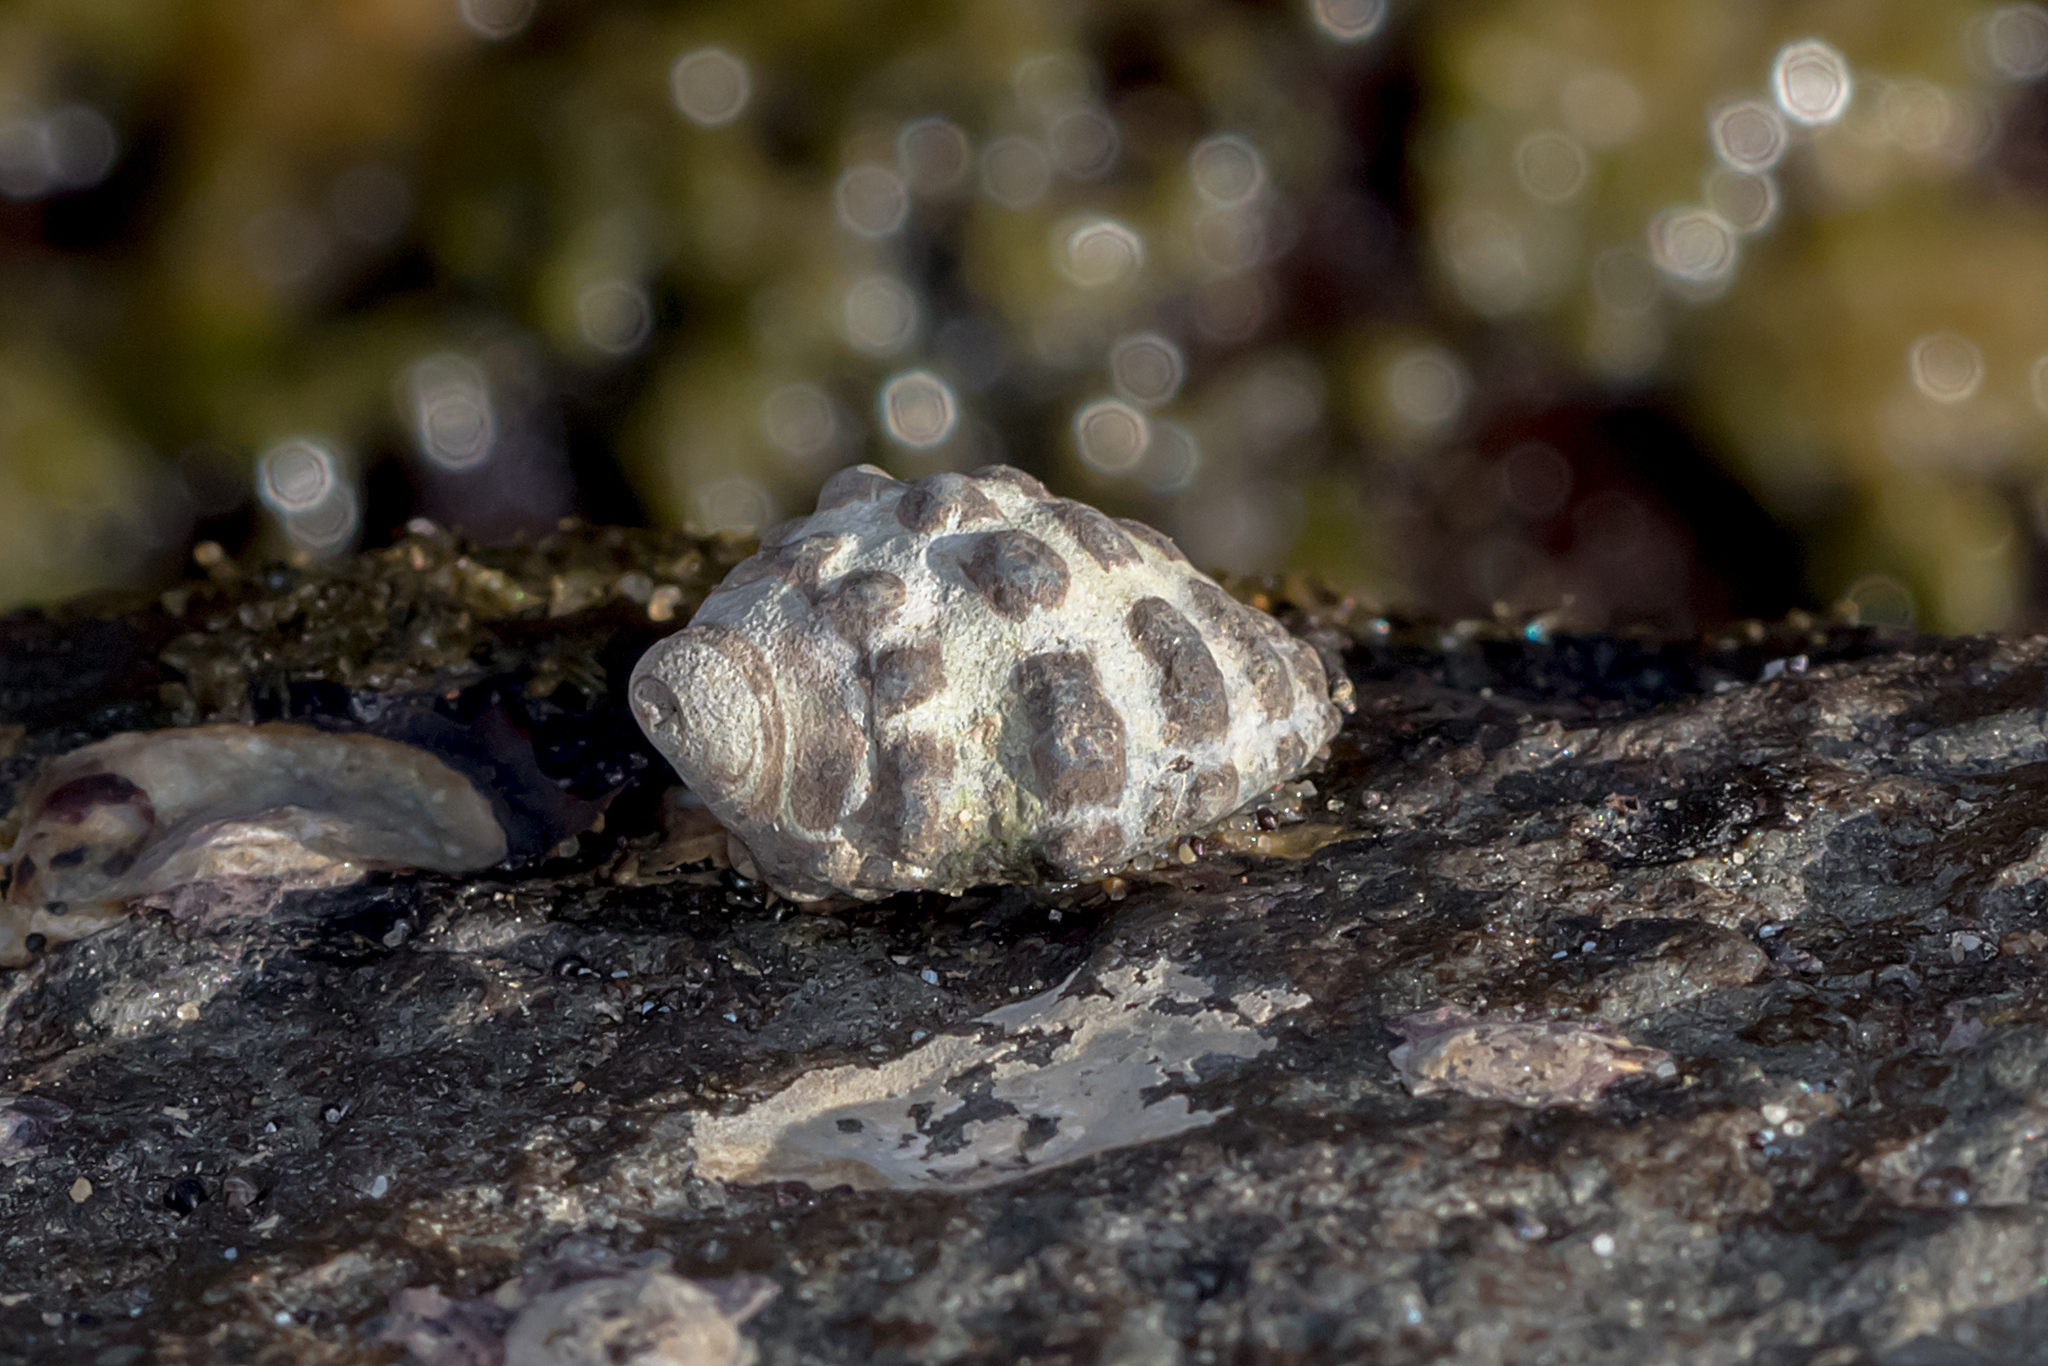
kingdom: Animalia
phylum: Mollusca
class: Gastropoda
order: Neogastropoda
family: Muricidae
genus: Tenguella
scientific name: Tenguella marginalba
